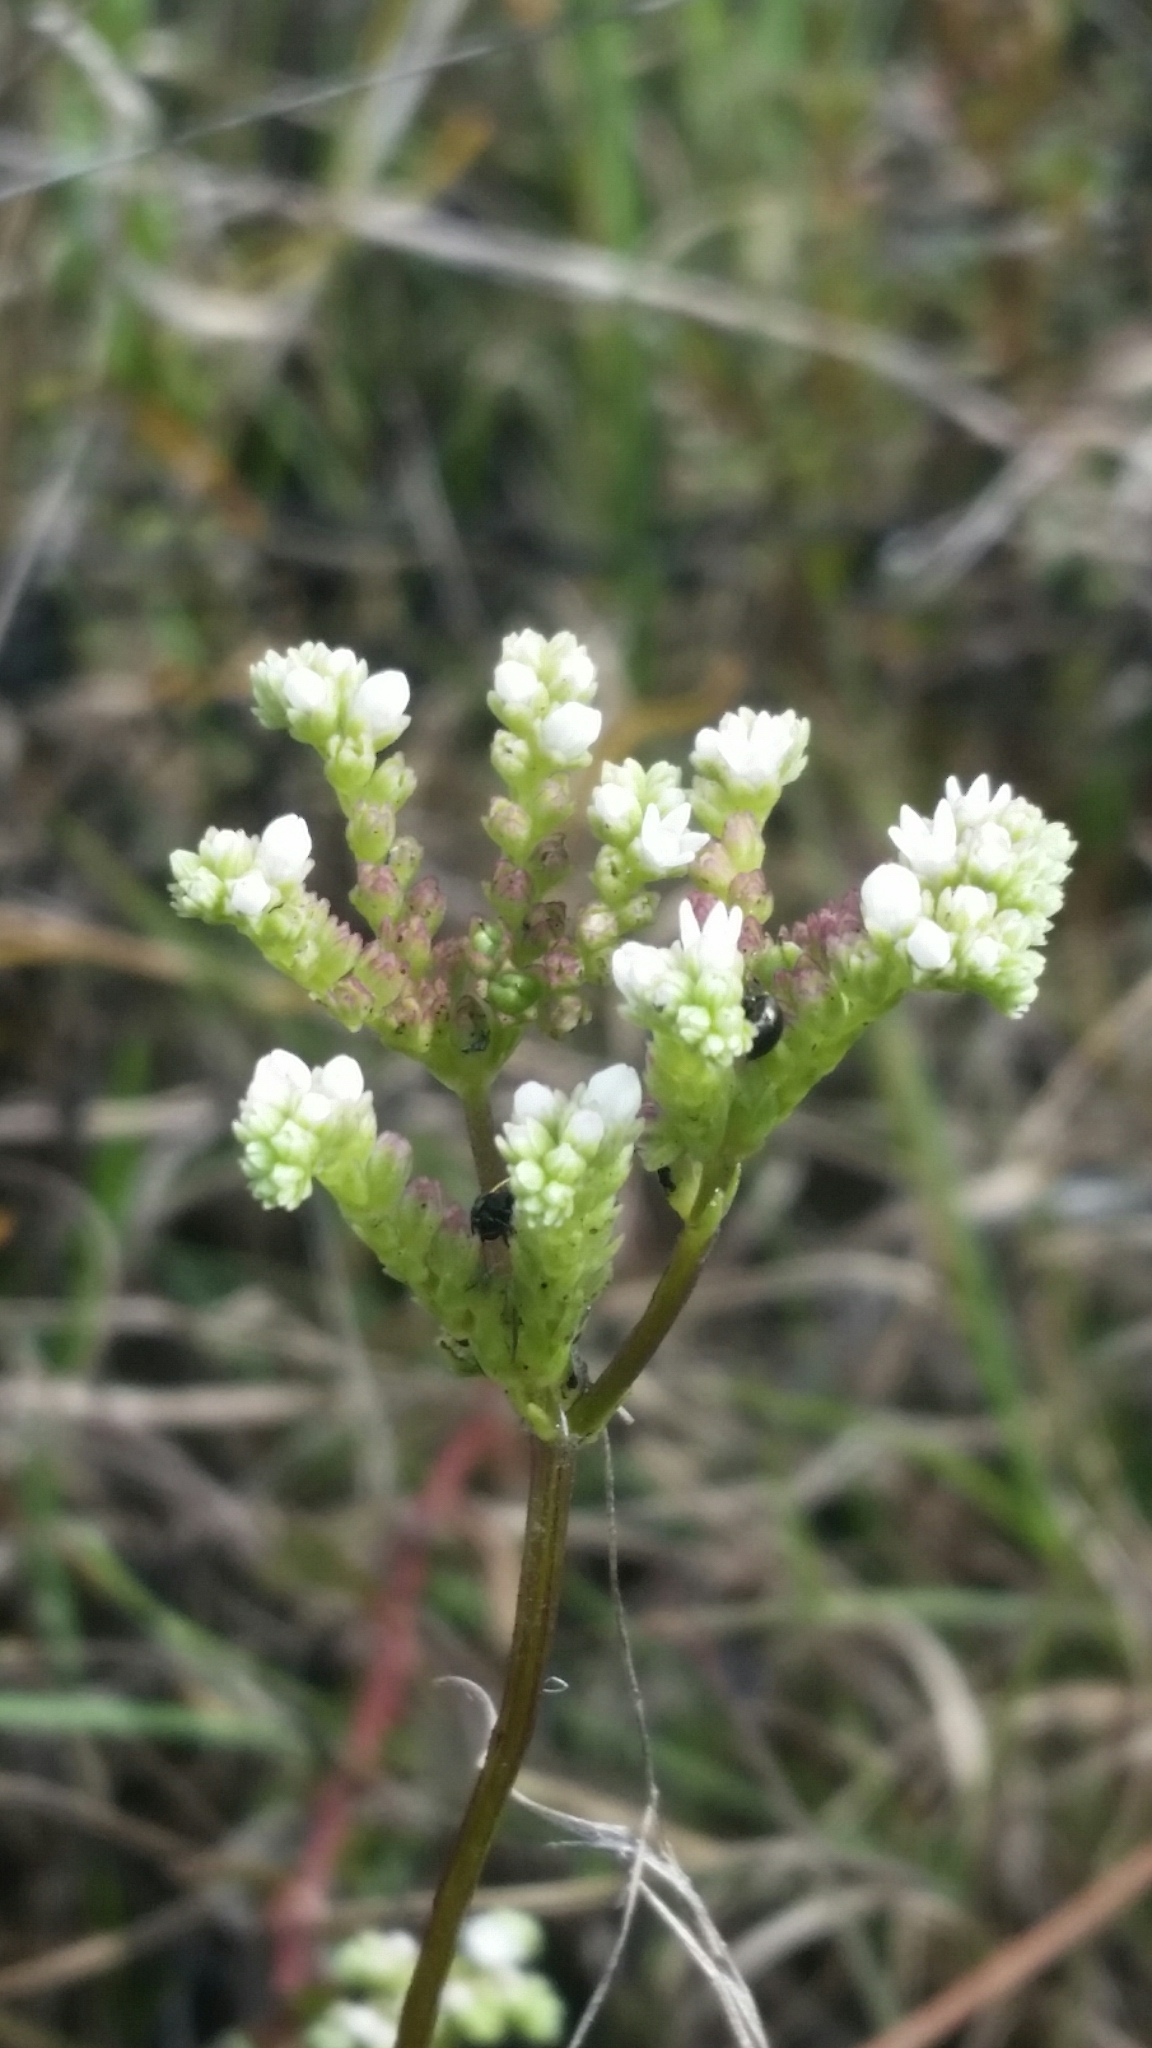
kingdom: Plantae
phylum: Tracheophyta
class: Magnoliopsida
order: Gentianales
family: Loganiaceae
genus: Mitreola
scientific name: Mitreola sessilifolia
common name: Swamp hornpod
